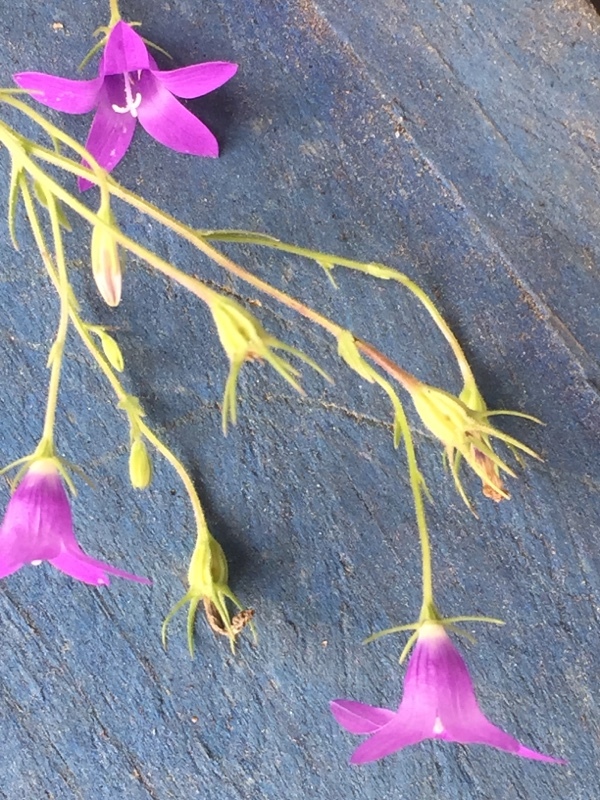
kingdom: Plantae
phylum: Tracheophyta
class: Magnoliopsida
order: Asterales
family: Campanulaceae
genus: Campanula
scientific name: Campanula lusitanica
